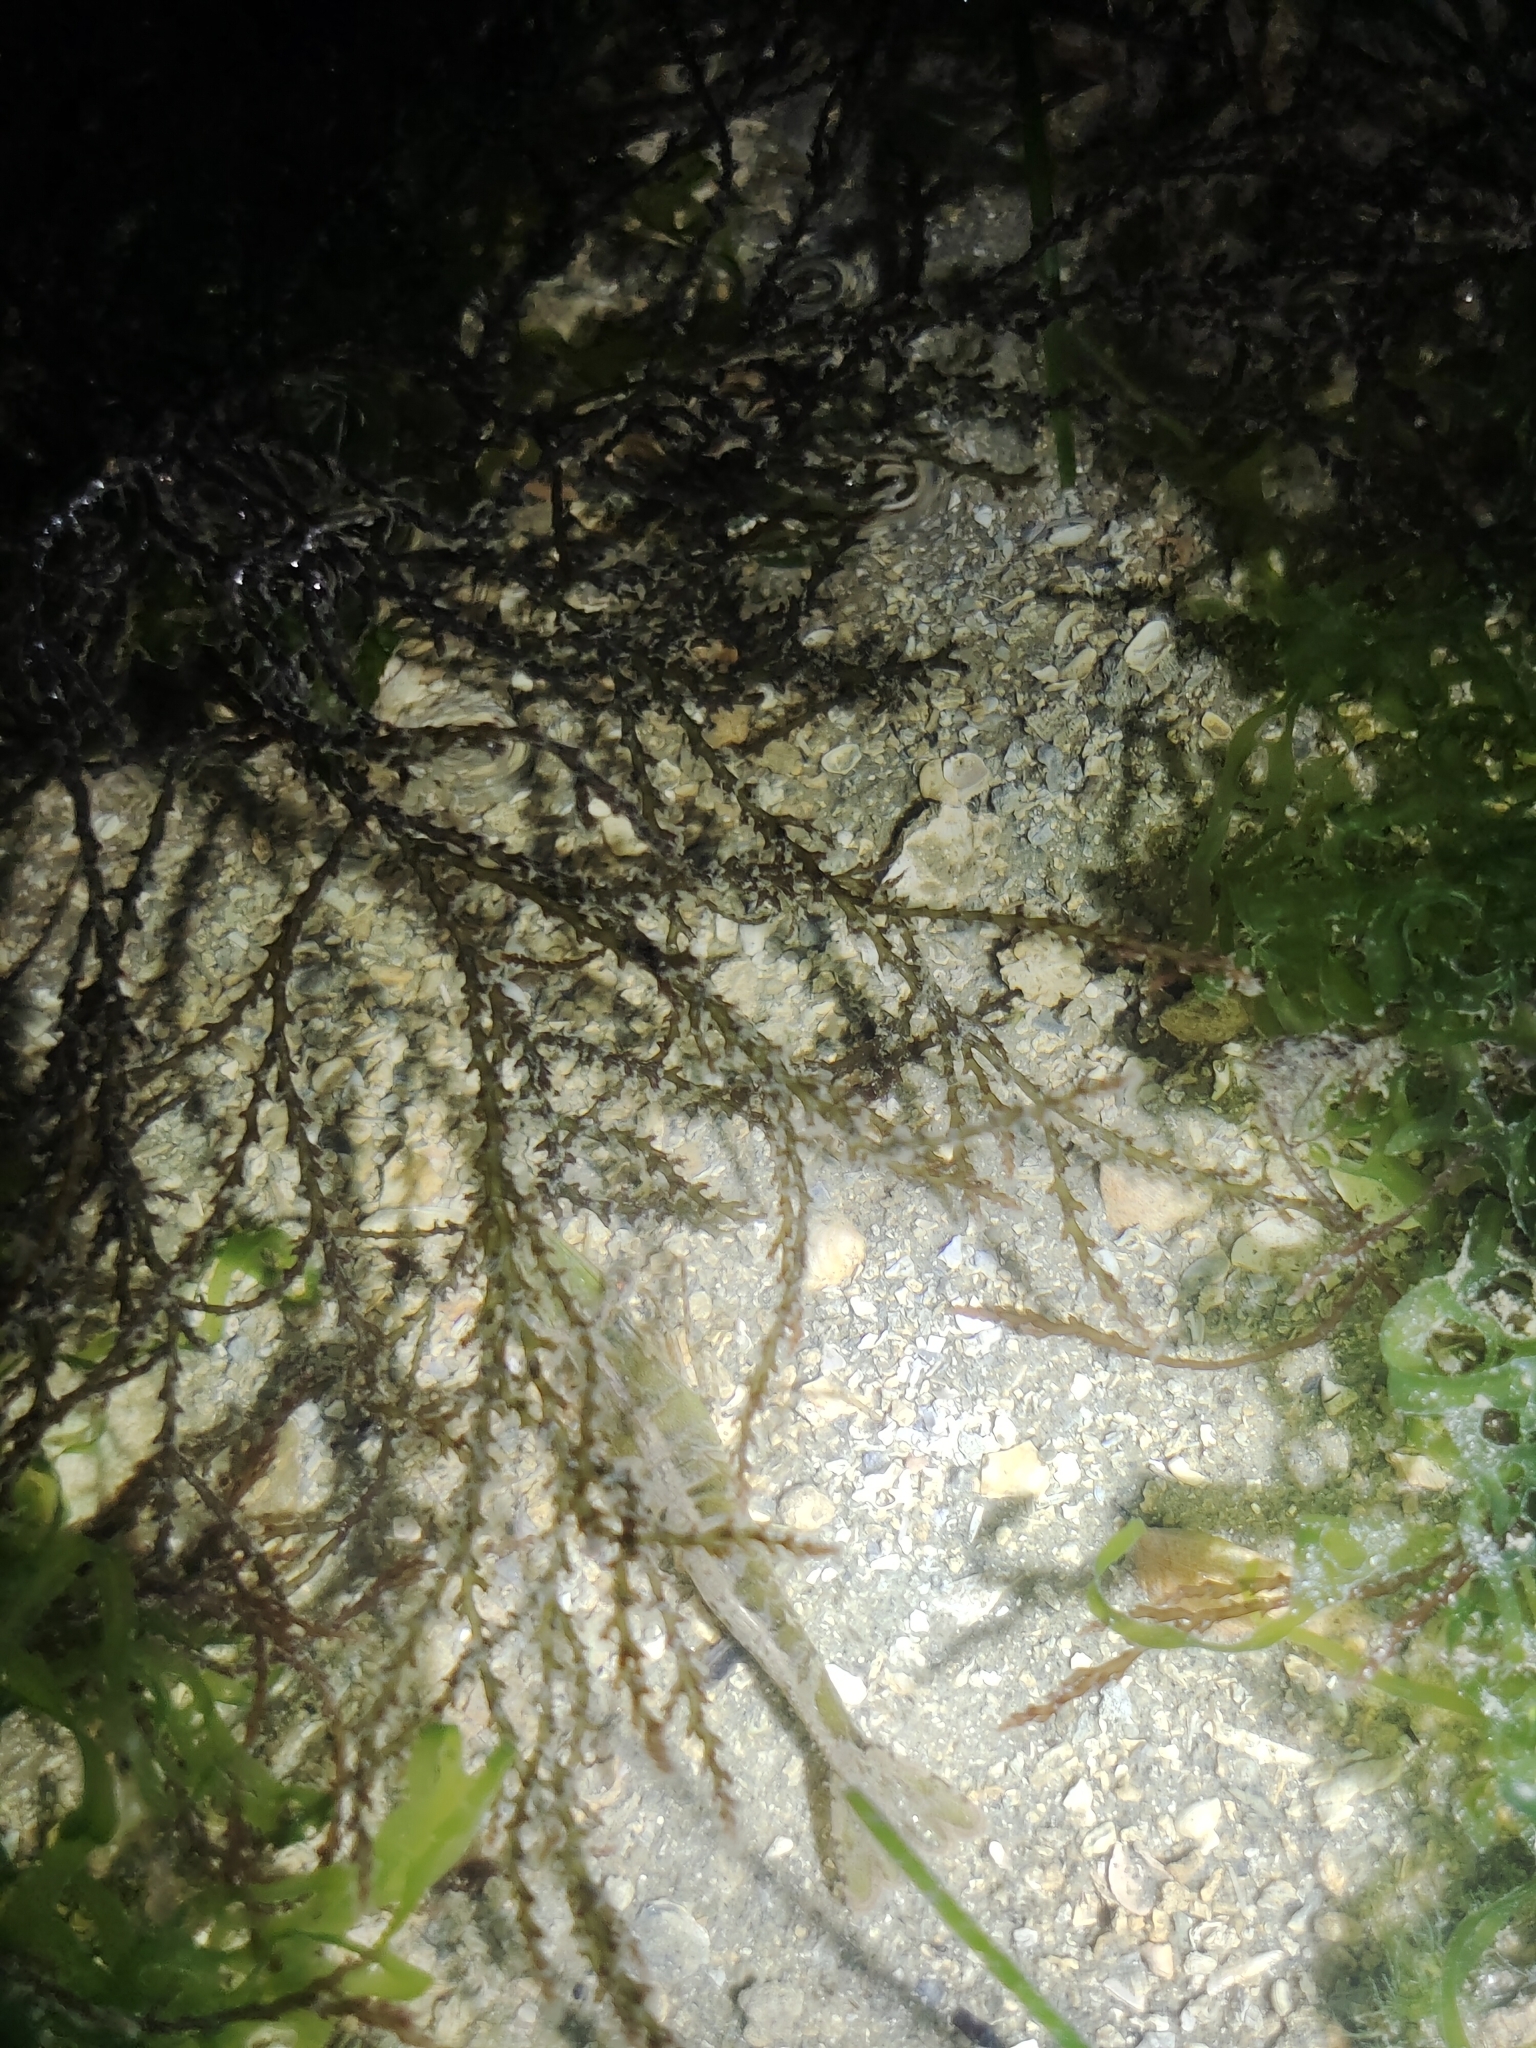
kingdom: Plantae
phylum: Rhodophyta
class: Florideophyceae
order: Ceramiales
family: Rhodomelaceae
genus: Acanthophora
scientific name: Acanthophora spicifera
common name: Red algae
